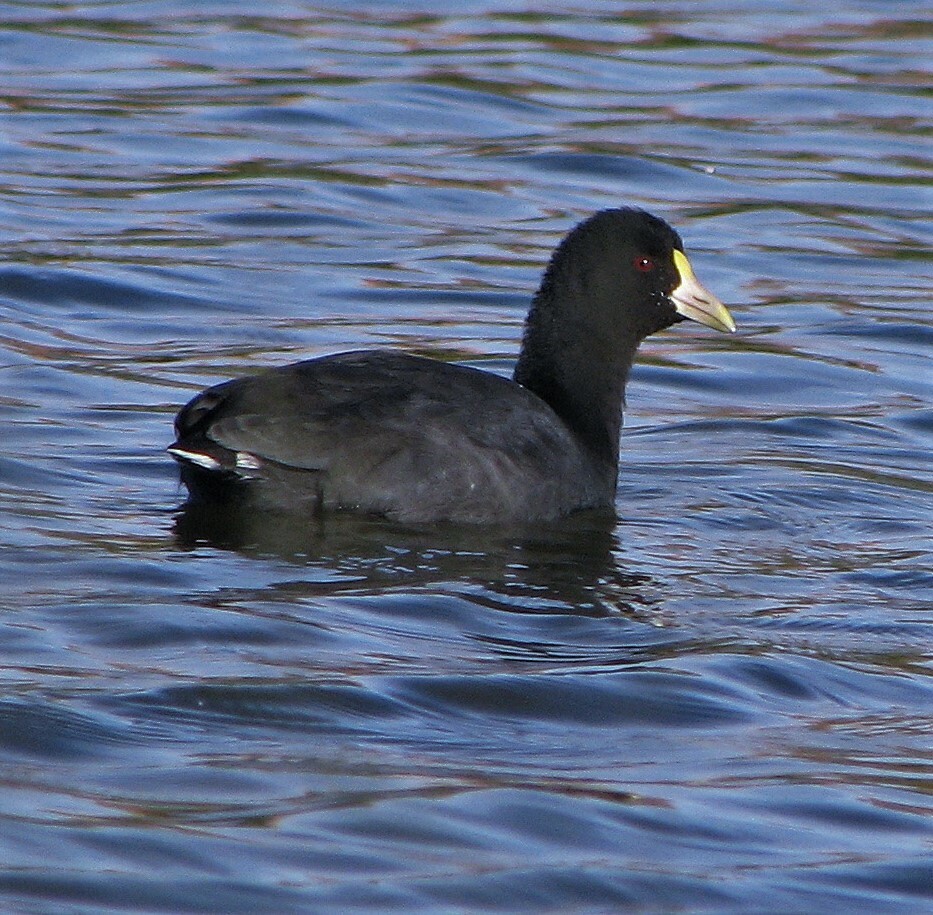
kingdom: Animalia
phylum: Chordata
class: Aves
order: Gruiformes
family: Rallidae
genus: Fulica
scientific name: Fulica leucoptera
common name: White-winged coot
